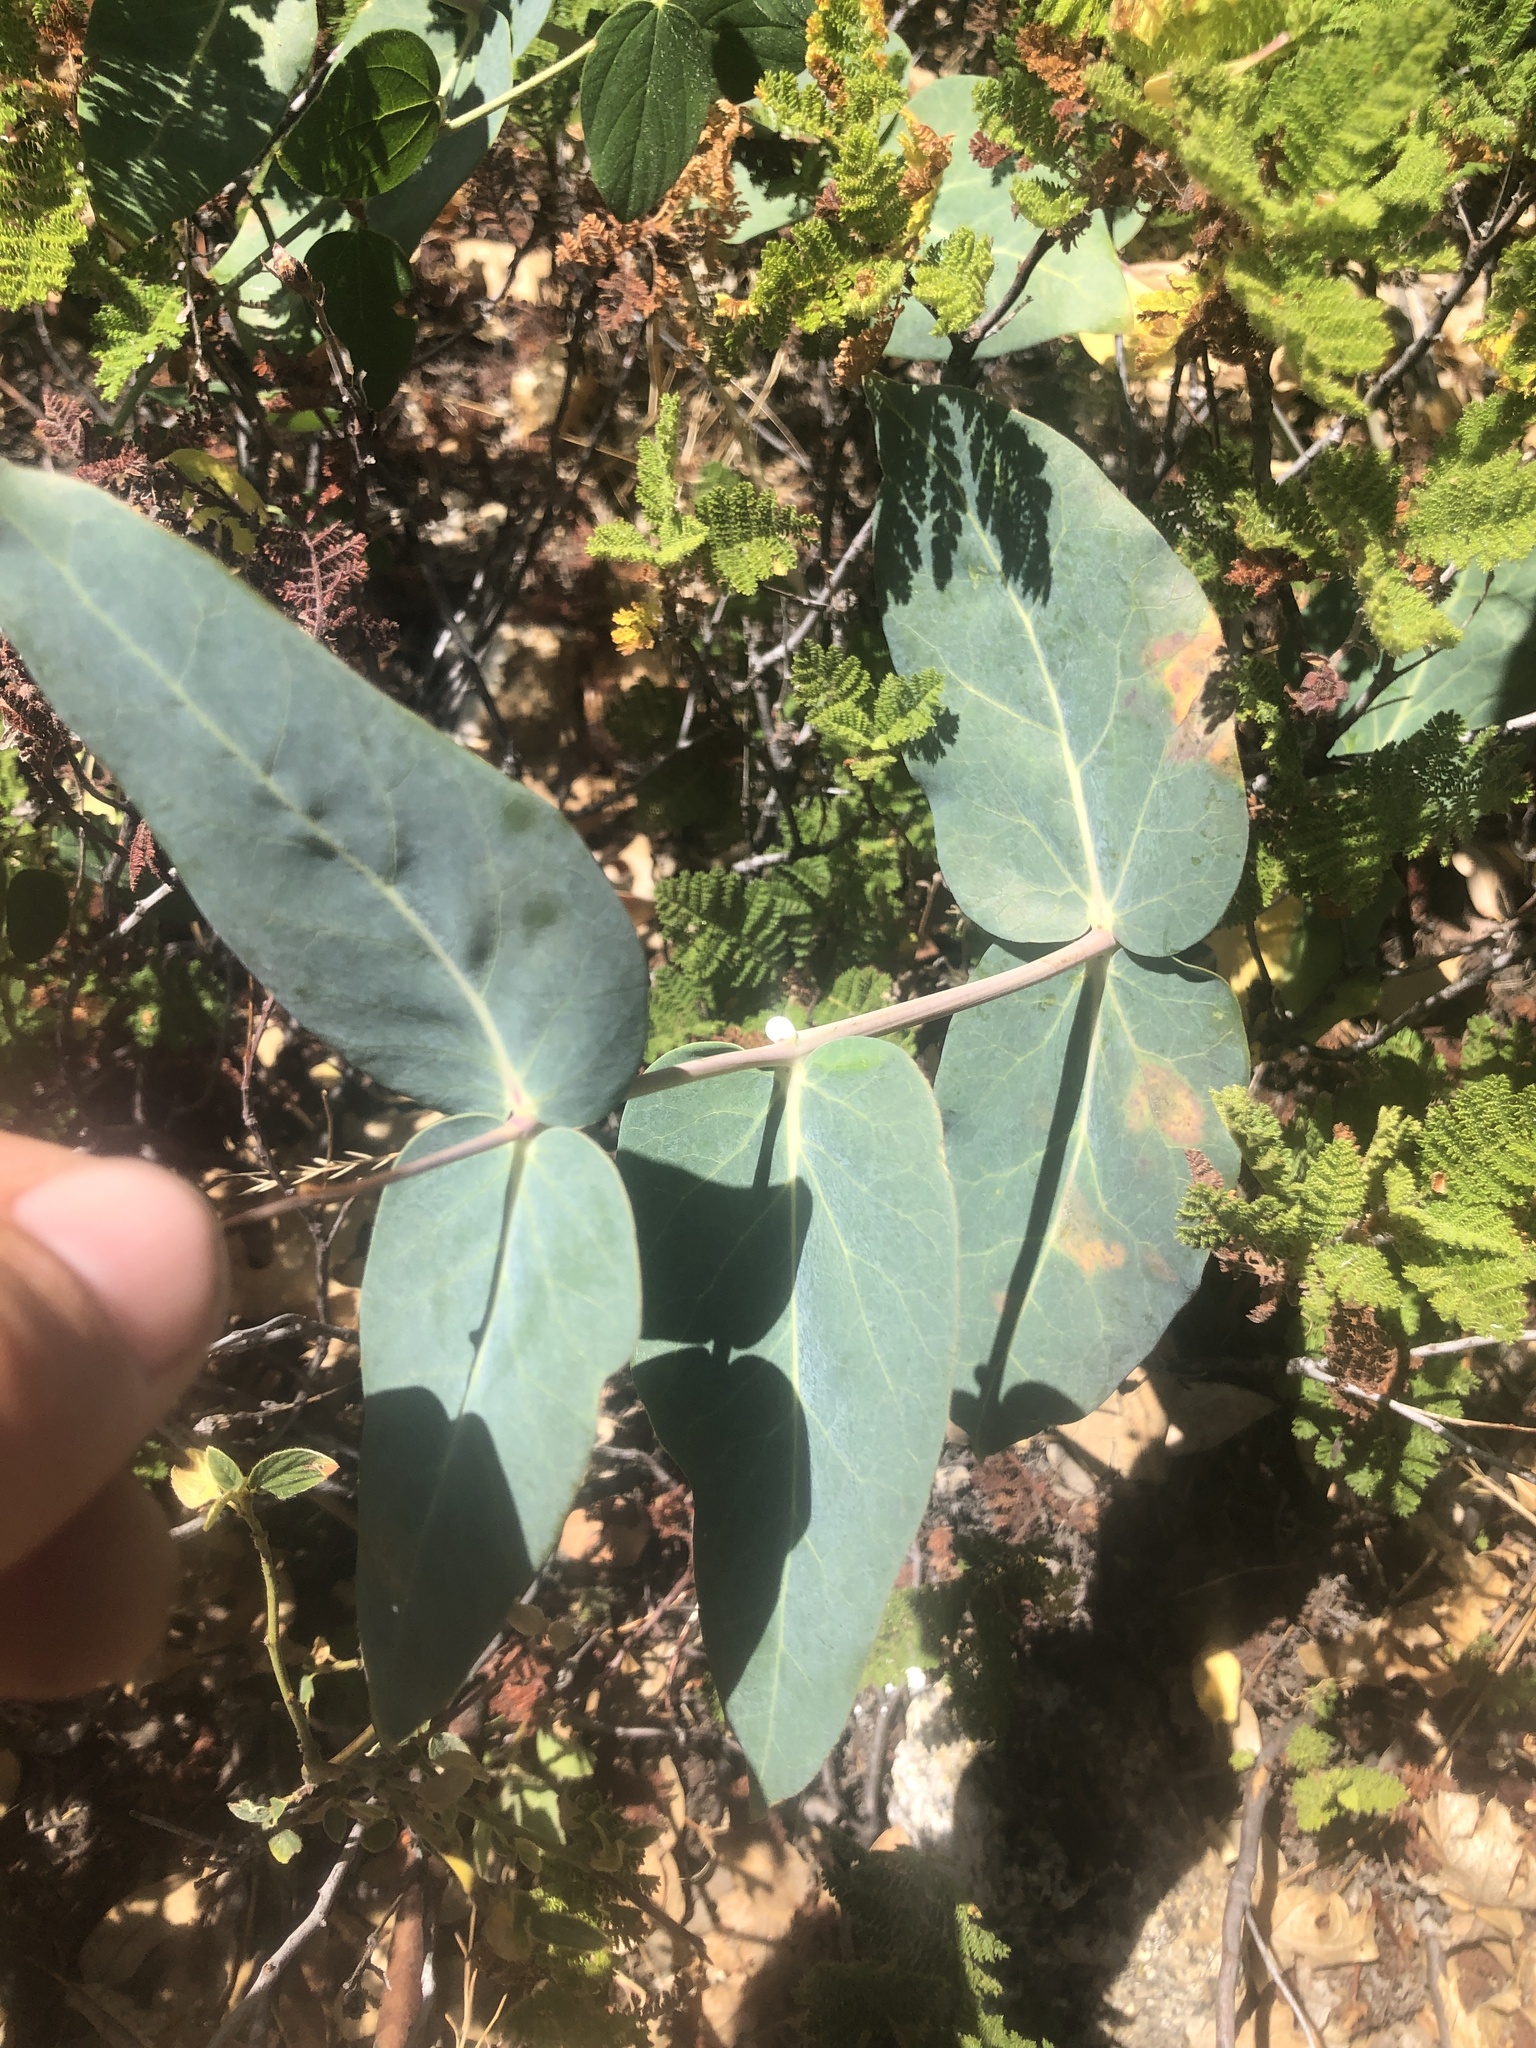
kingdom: Plantae
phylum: Tracheophyta
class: Magnoliopsida
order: Gentianales
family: Apocynaceae
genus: Asclepias
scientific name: Asclepias cordifolia
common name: Purple milkweed
